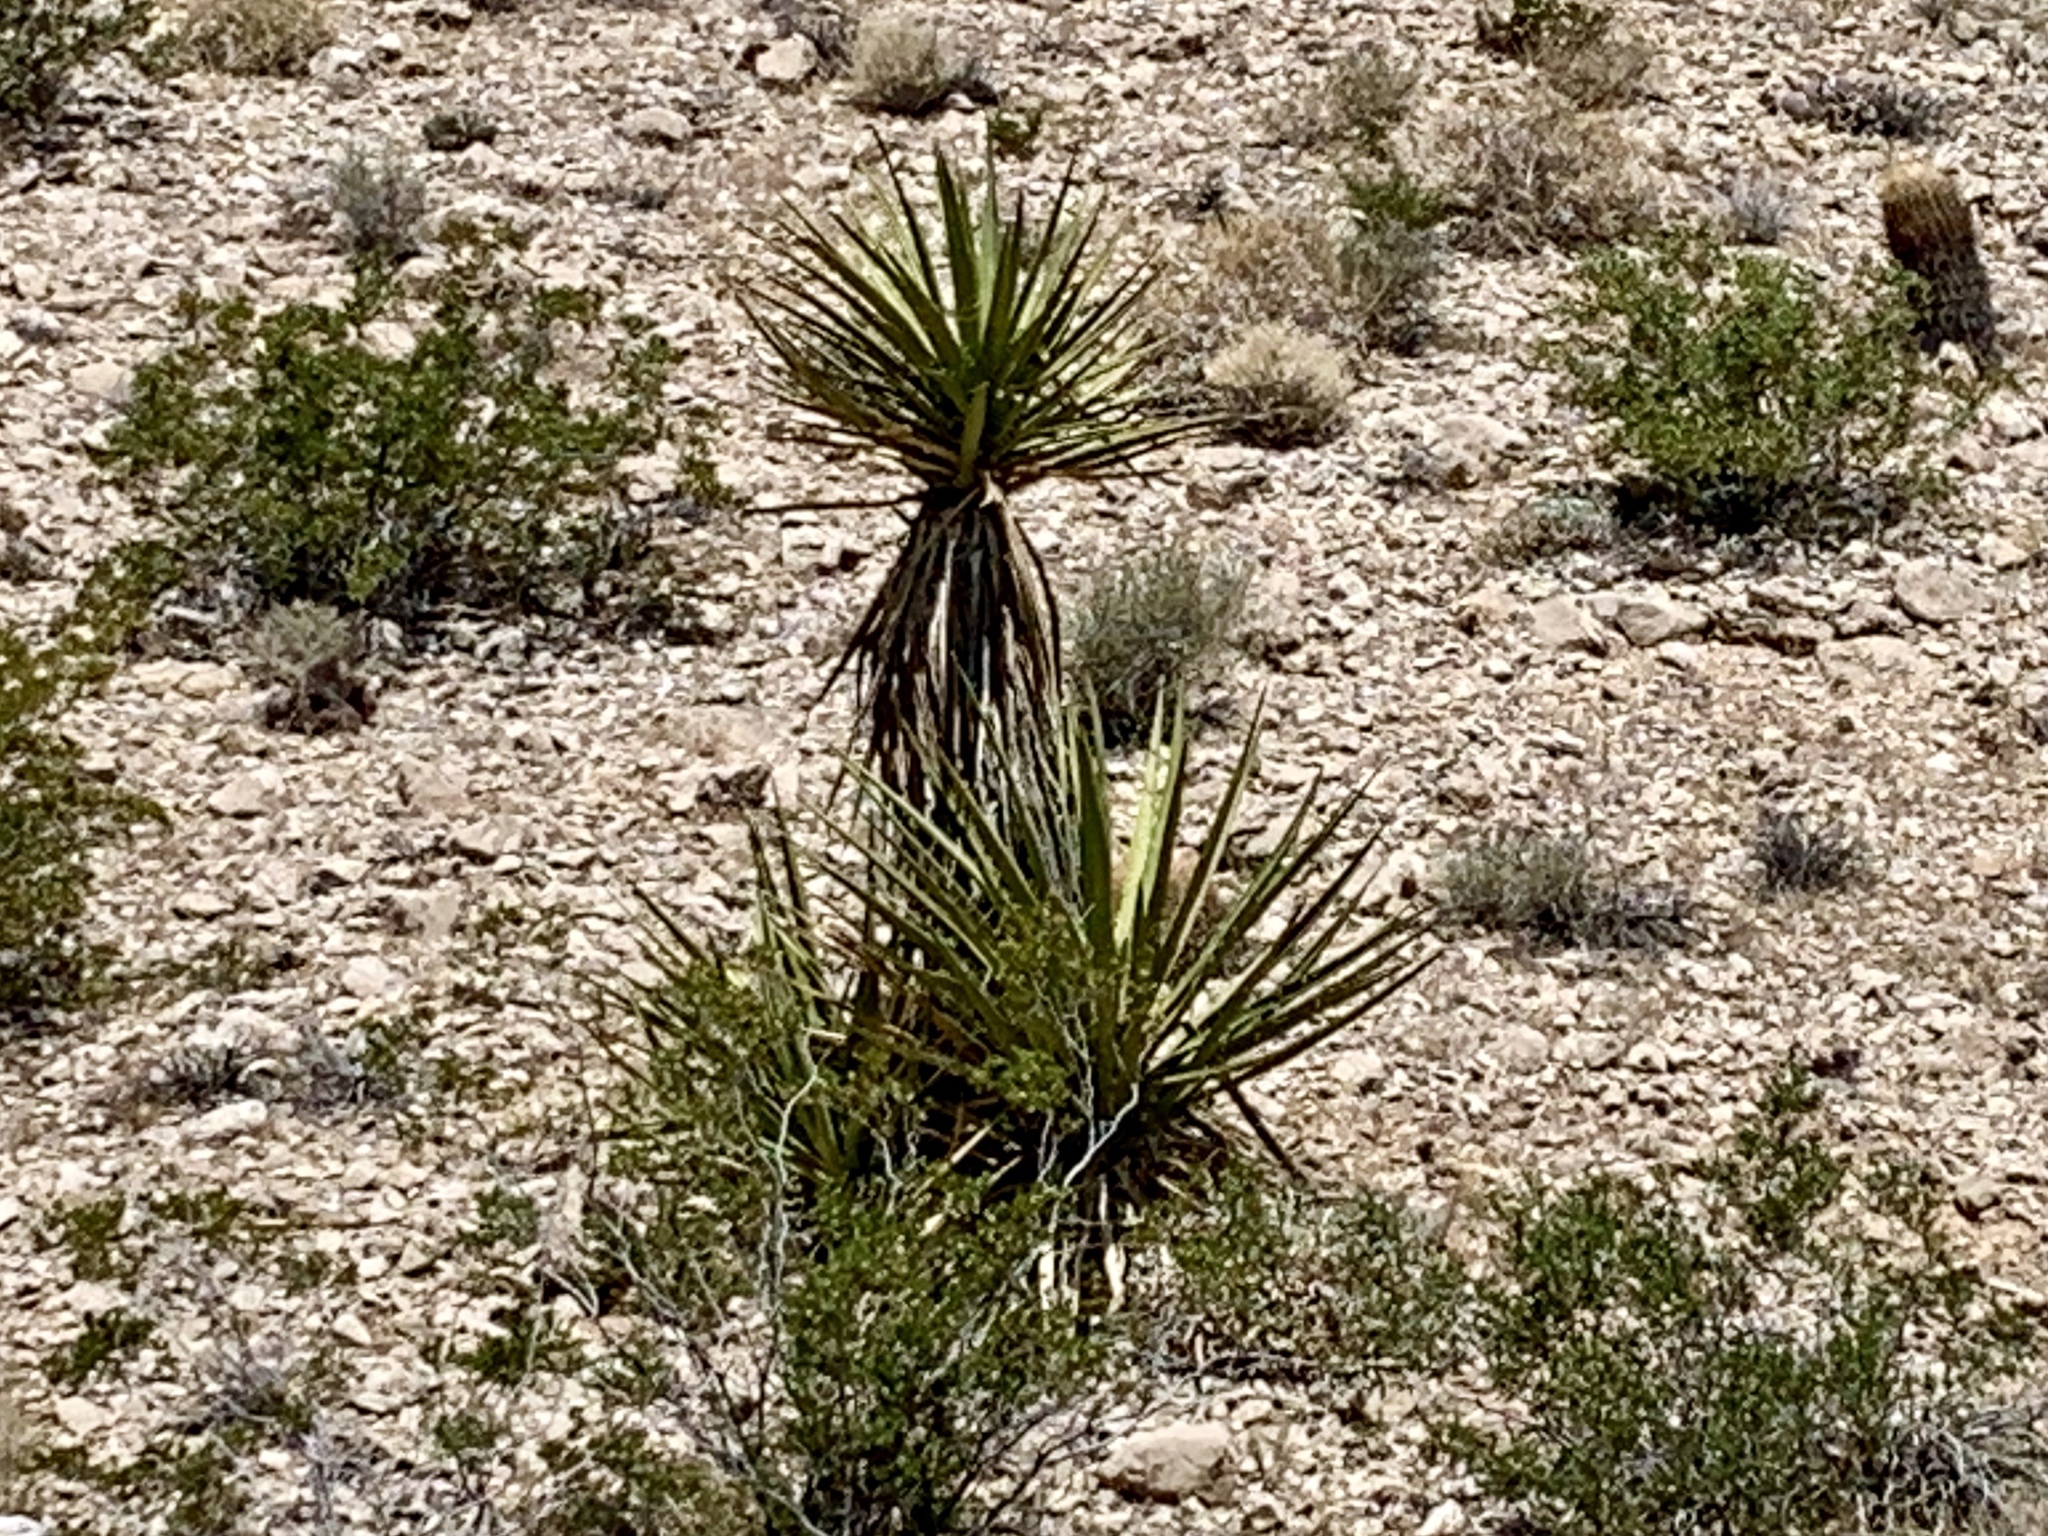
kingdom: Plantae
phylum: Tracheophyta
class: Liliopsida
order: Asparagales
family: Asparagaceae
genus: Yucca
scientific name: Yucca schidigera
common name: Mojave yucca
